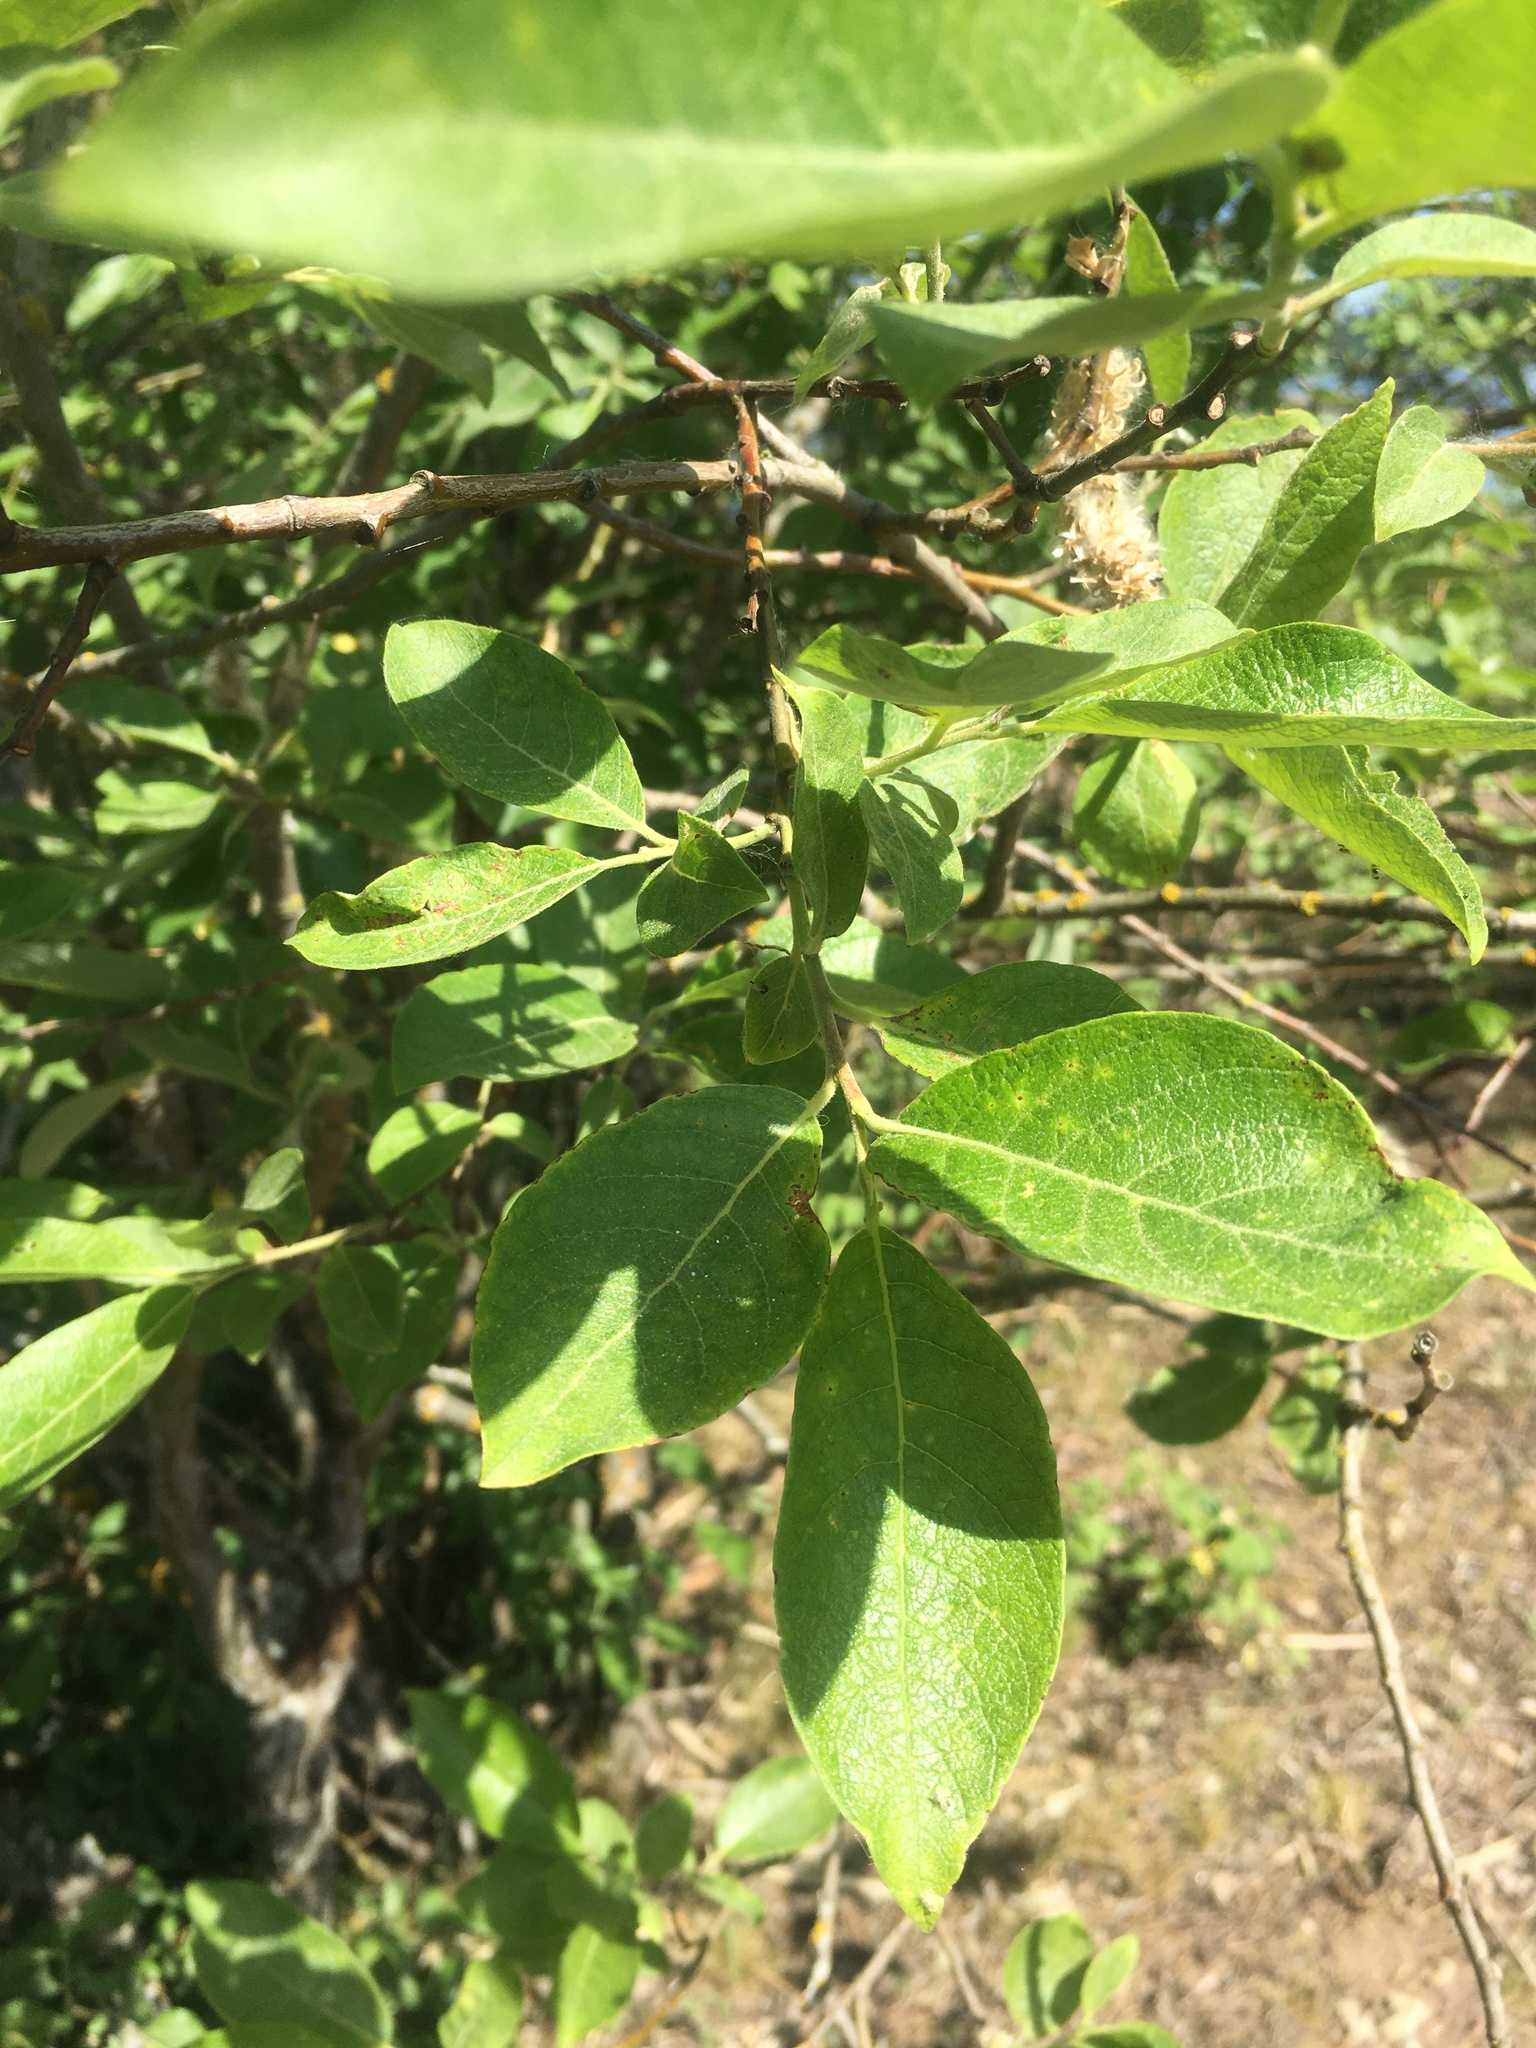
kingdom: Plantae
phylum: Tracheophyta
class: Magnoliopsida
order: Malpighiales
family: Salicaceae
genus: Salix
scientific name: Salix caprea
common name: Goat willow
